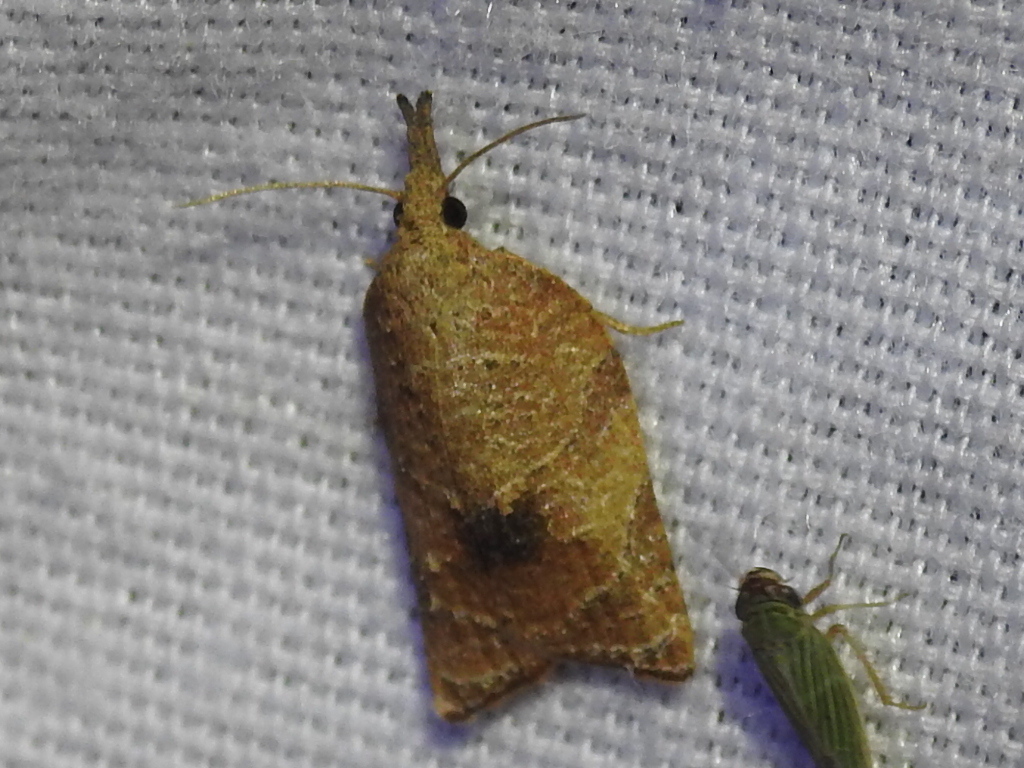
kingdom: Animalia
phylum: Arthropoda
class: Insecta
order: Lepidoptera
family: Tortricidae
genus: Platynota
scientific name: Platynota rostrana
